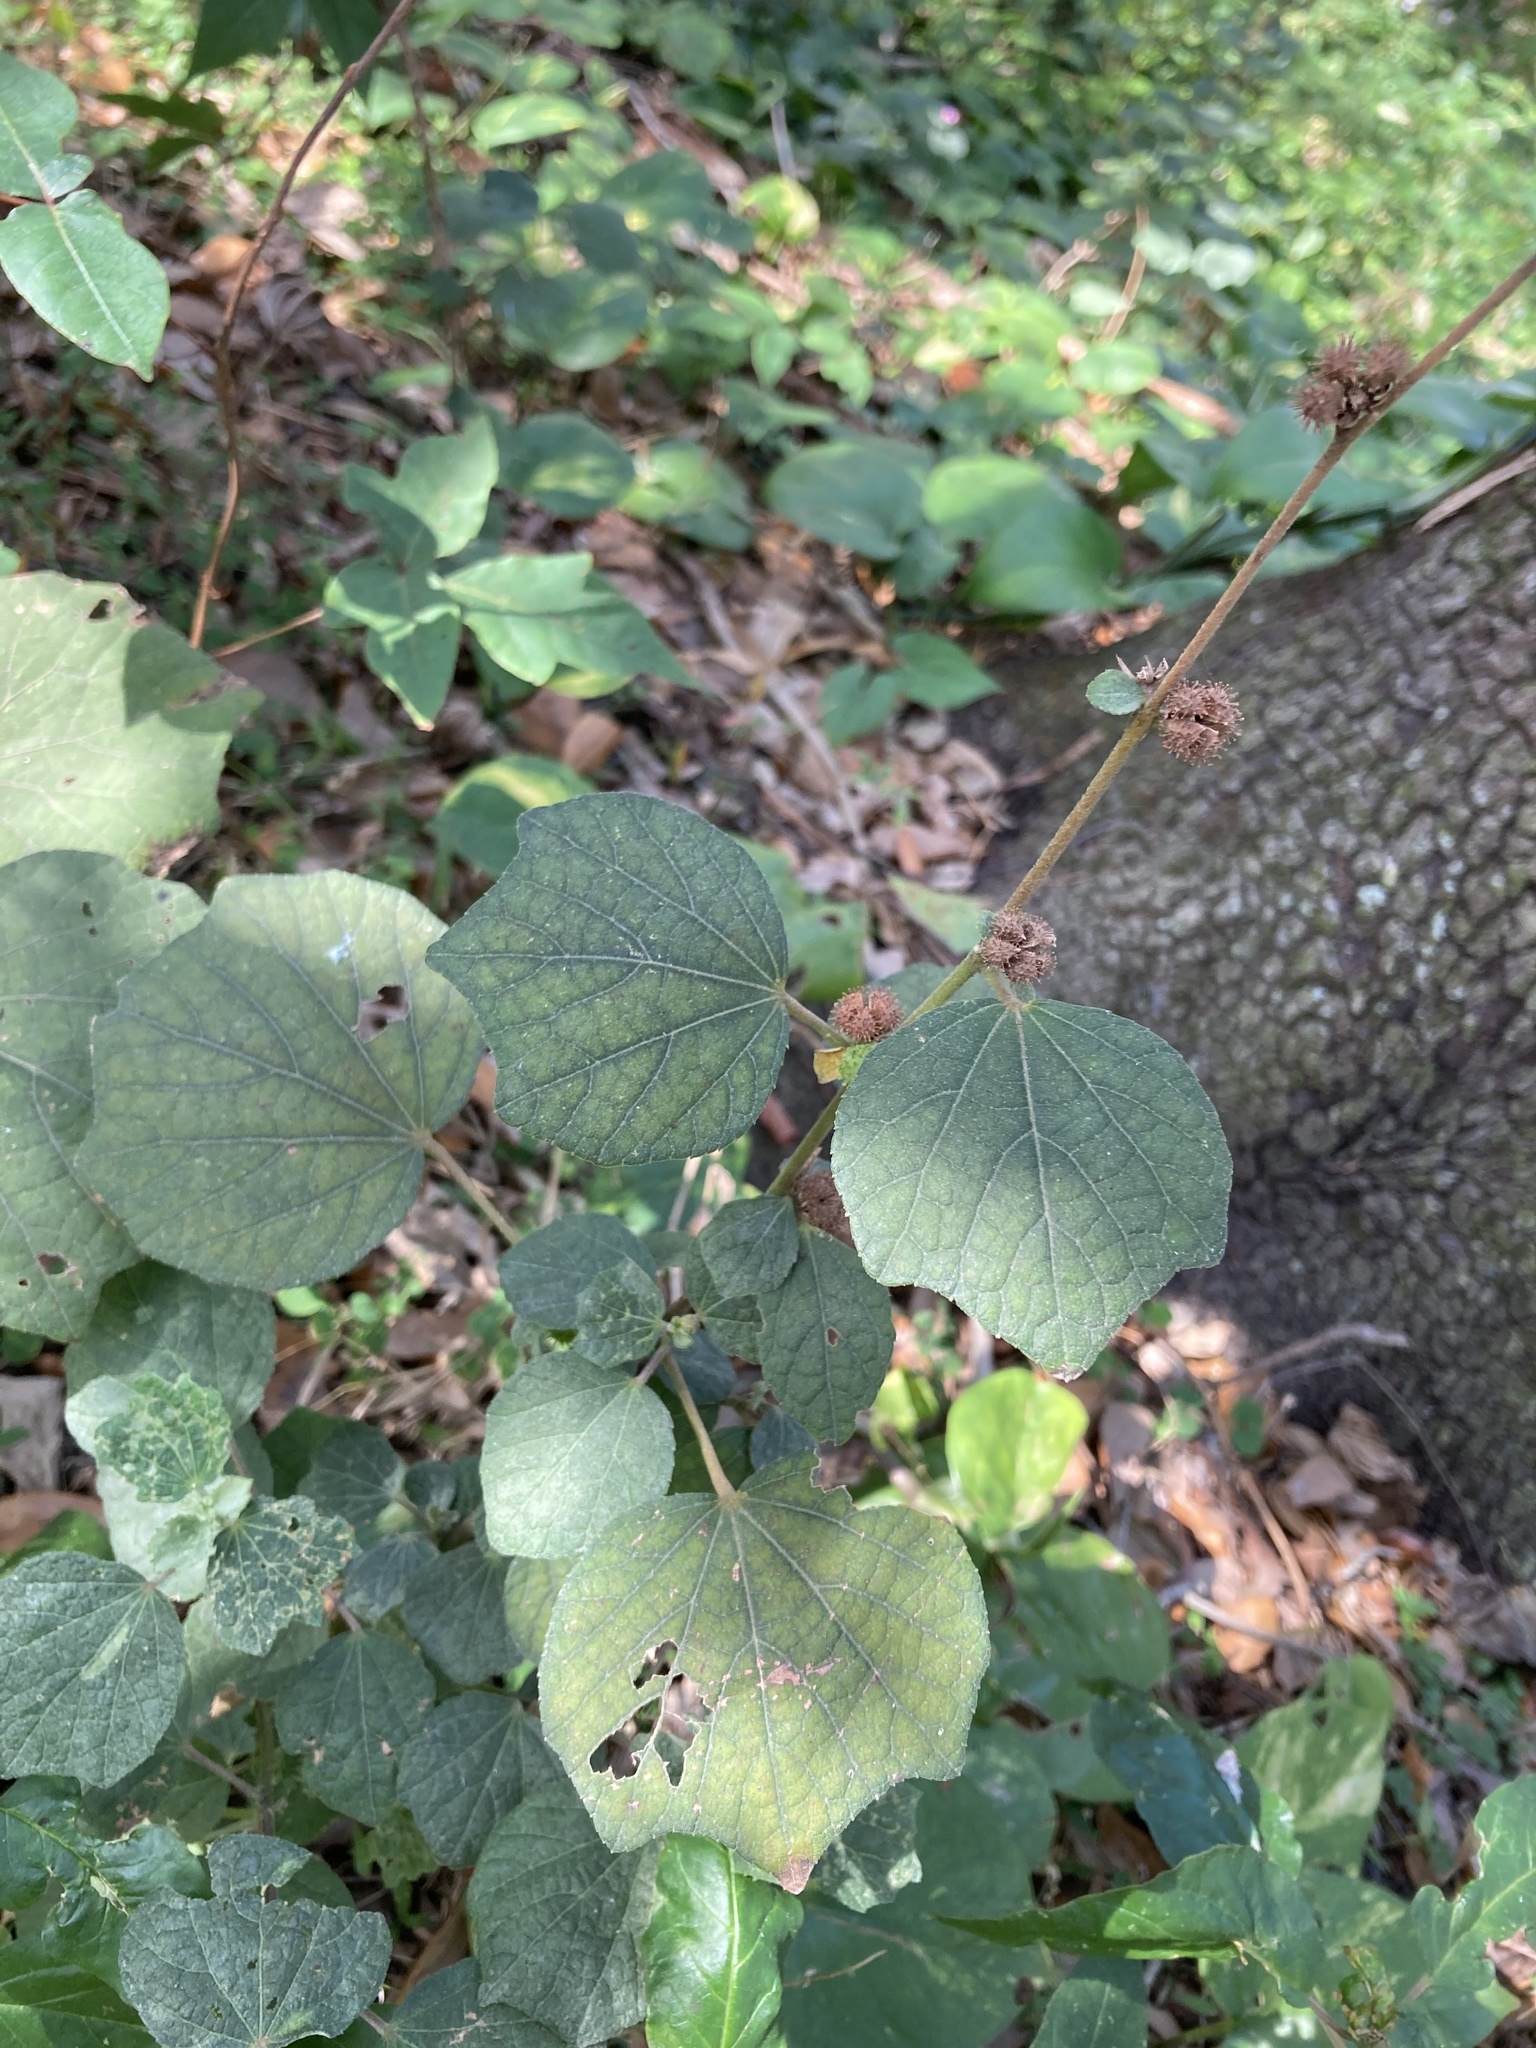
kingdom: Plantae
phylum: Tracheophyta
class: Magnoliopsida
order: Malvales
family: Malvaceae
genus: Urena
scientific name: Urena lobata
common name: Caesarweed
